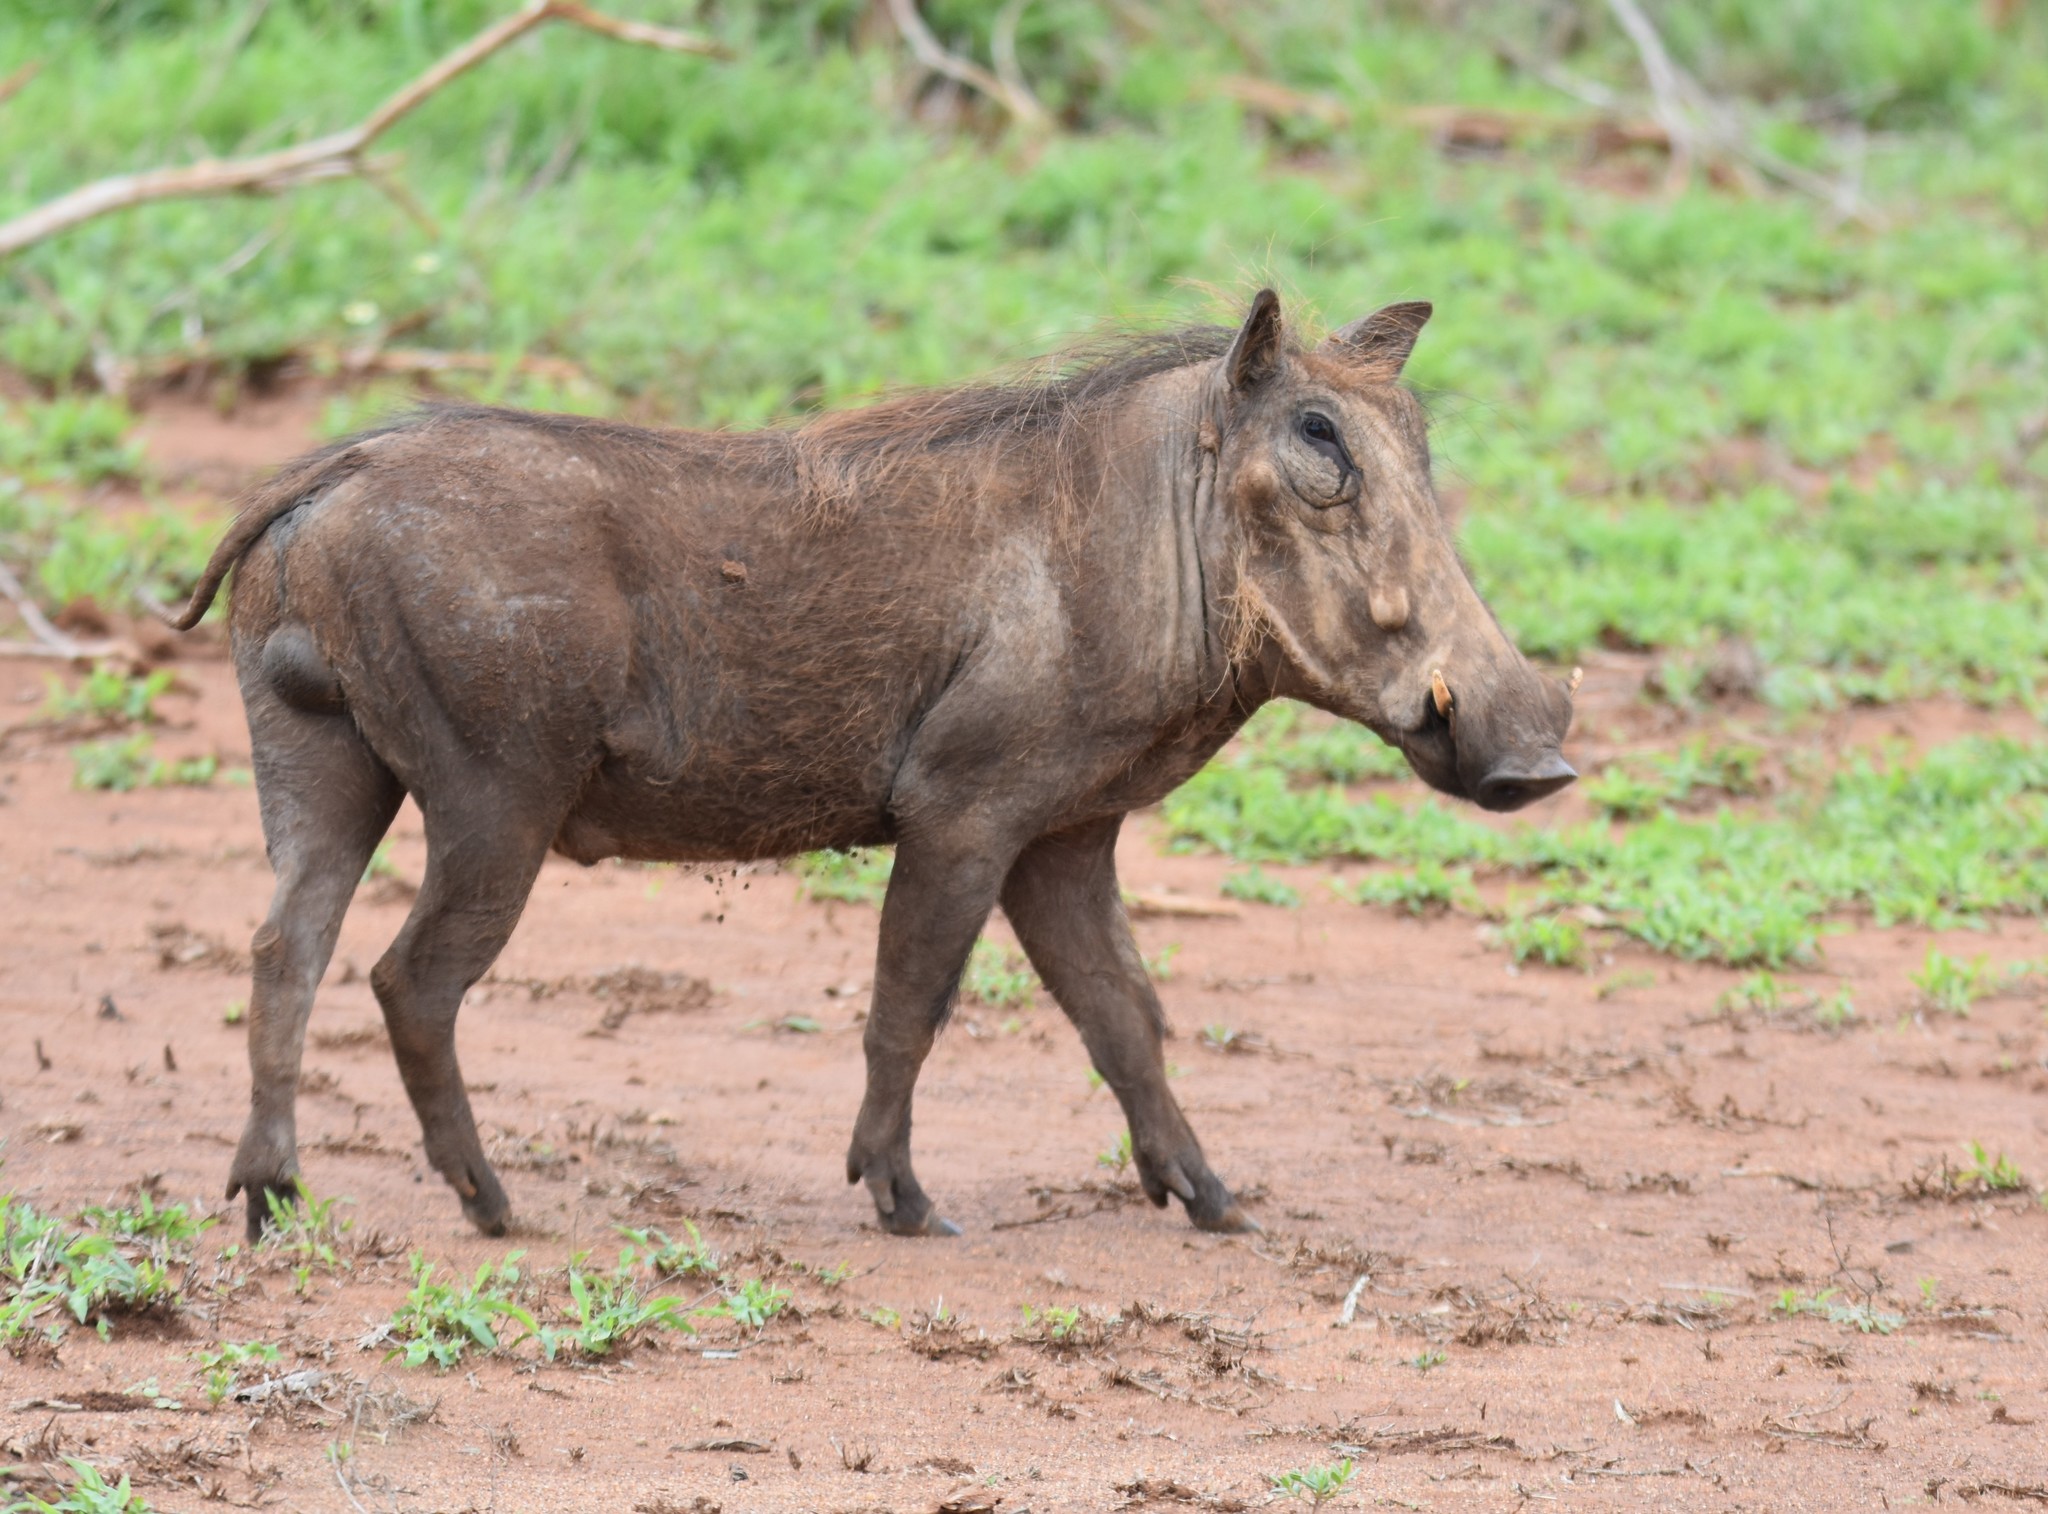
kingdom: Animalia
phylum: Chordata
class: Mammalia
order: Artiodactyla
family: Suidae
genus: Phacochoerus
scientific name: Phacochoerus africanus
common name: Common warthog
